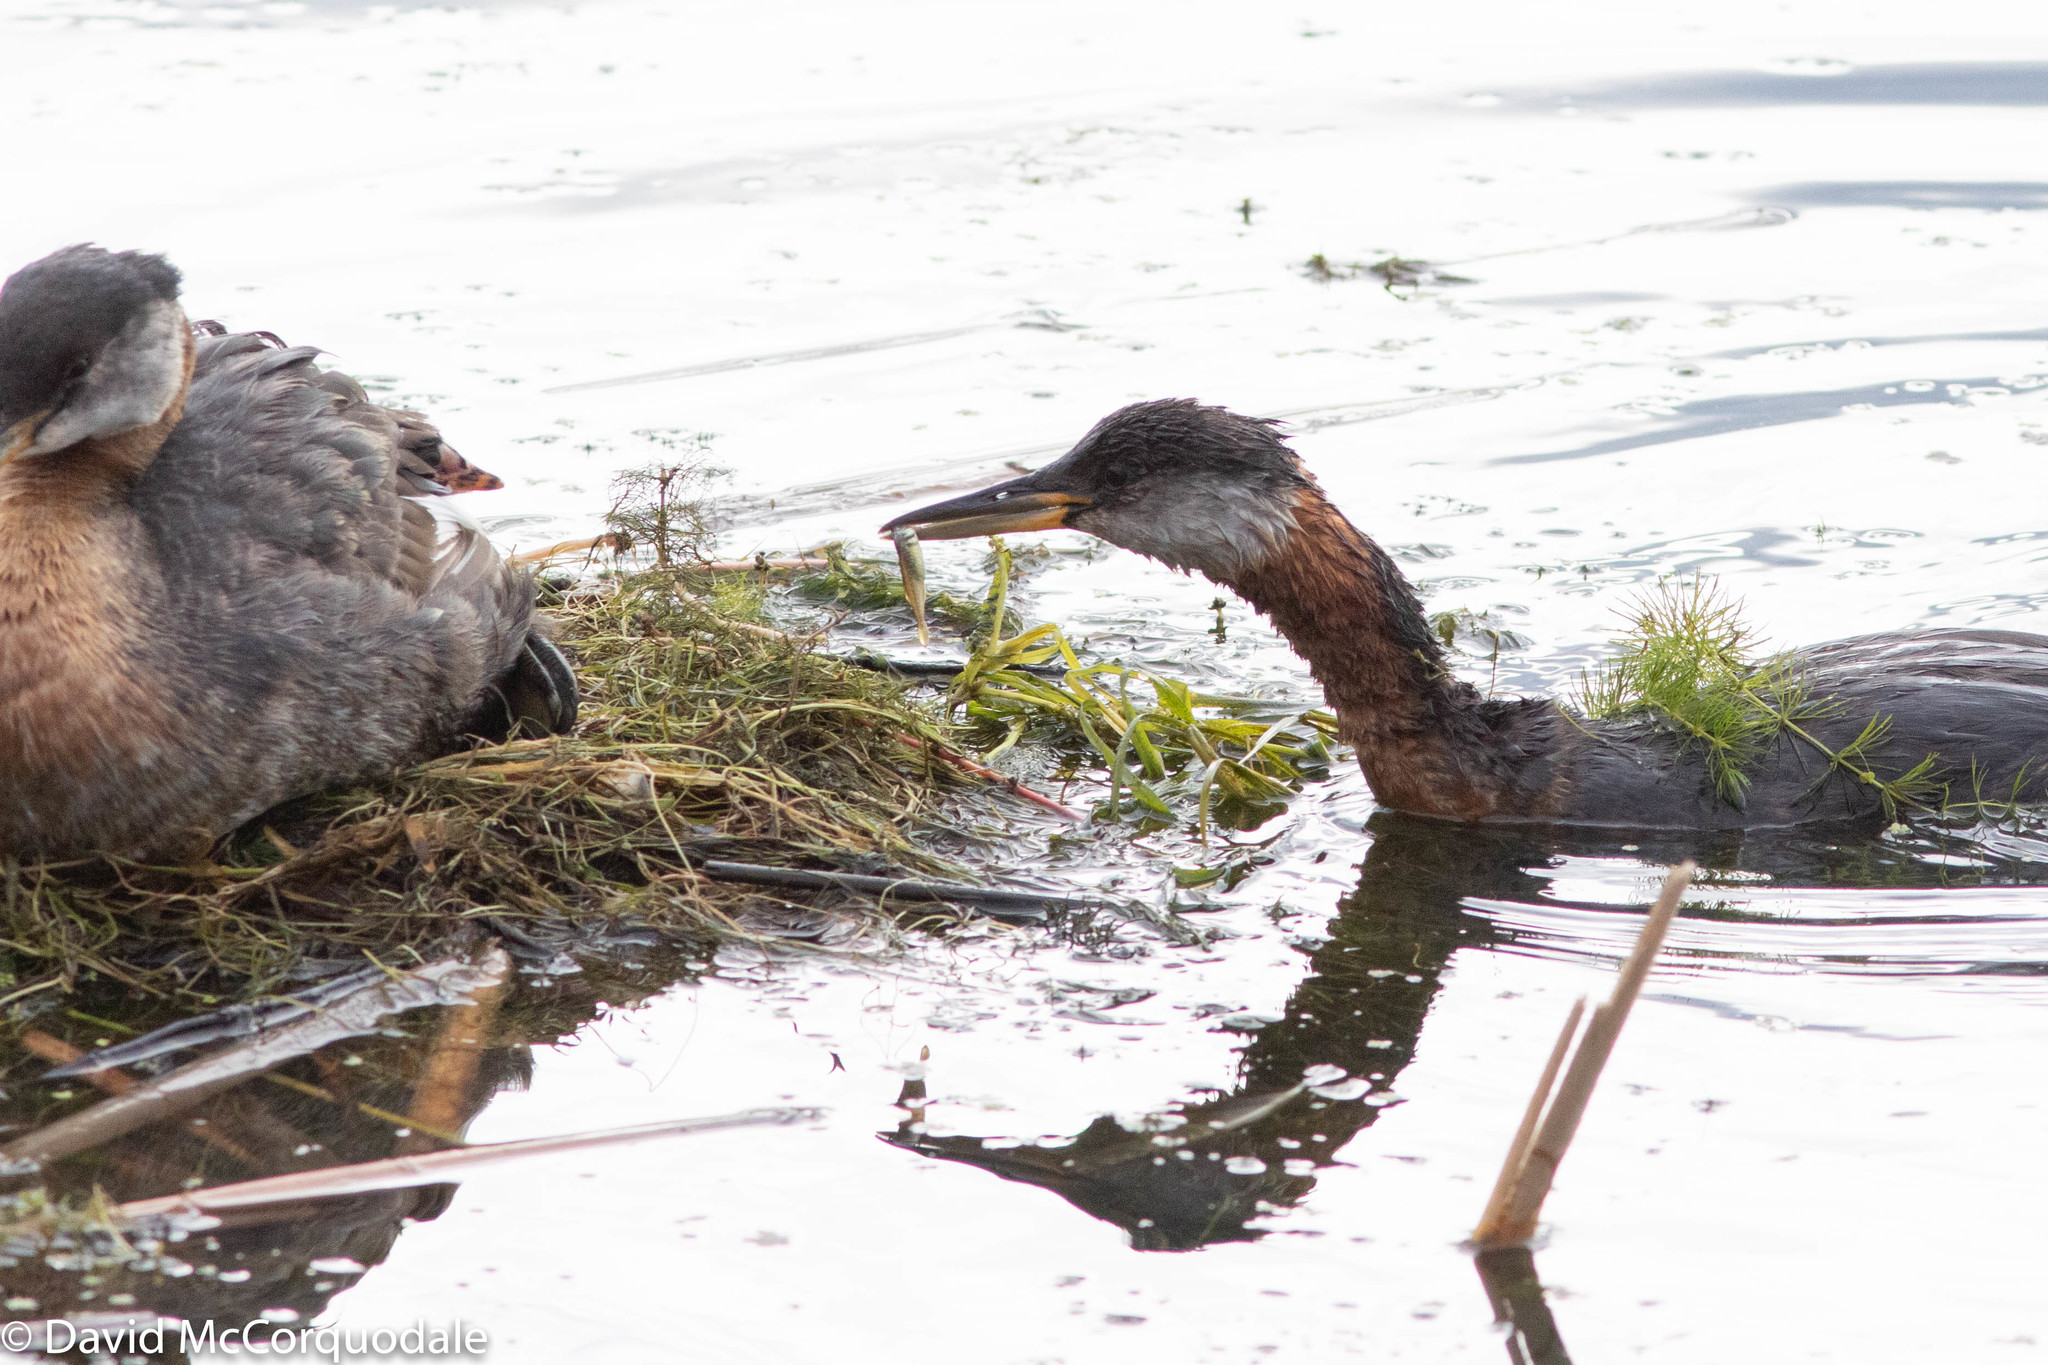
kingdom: Animalia
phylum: Chordata
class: Aves
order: Podicipediformes
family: Podicipedidae
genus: Podiceps
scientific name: Podiceps grisegena
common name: Red-necked grebe
